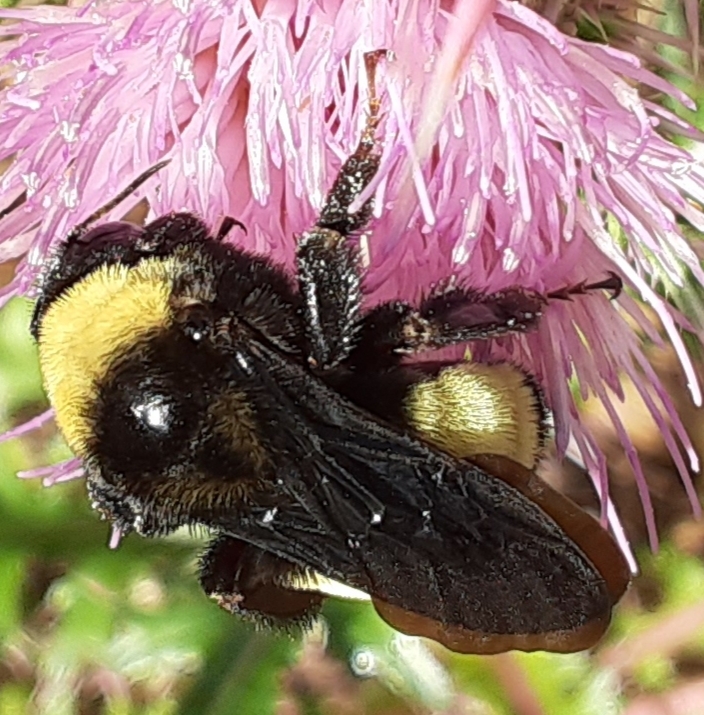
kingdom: Animalia
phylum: Arthropoda
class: Insecta
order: Hymenoptera
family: Apidae
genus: Bombus
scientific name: Bombus pensylvanicus
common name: Bumble bee
